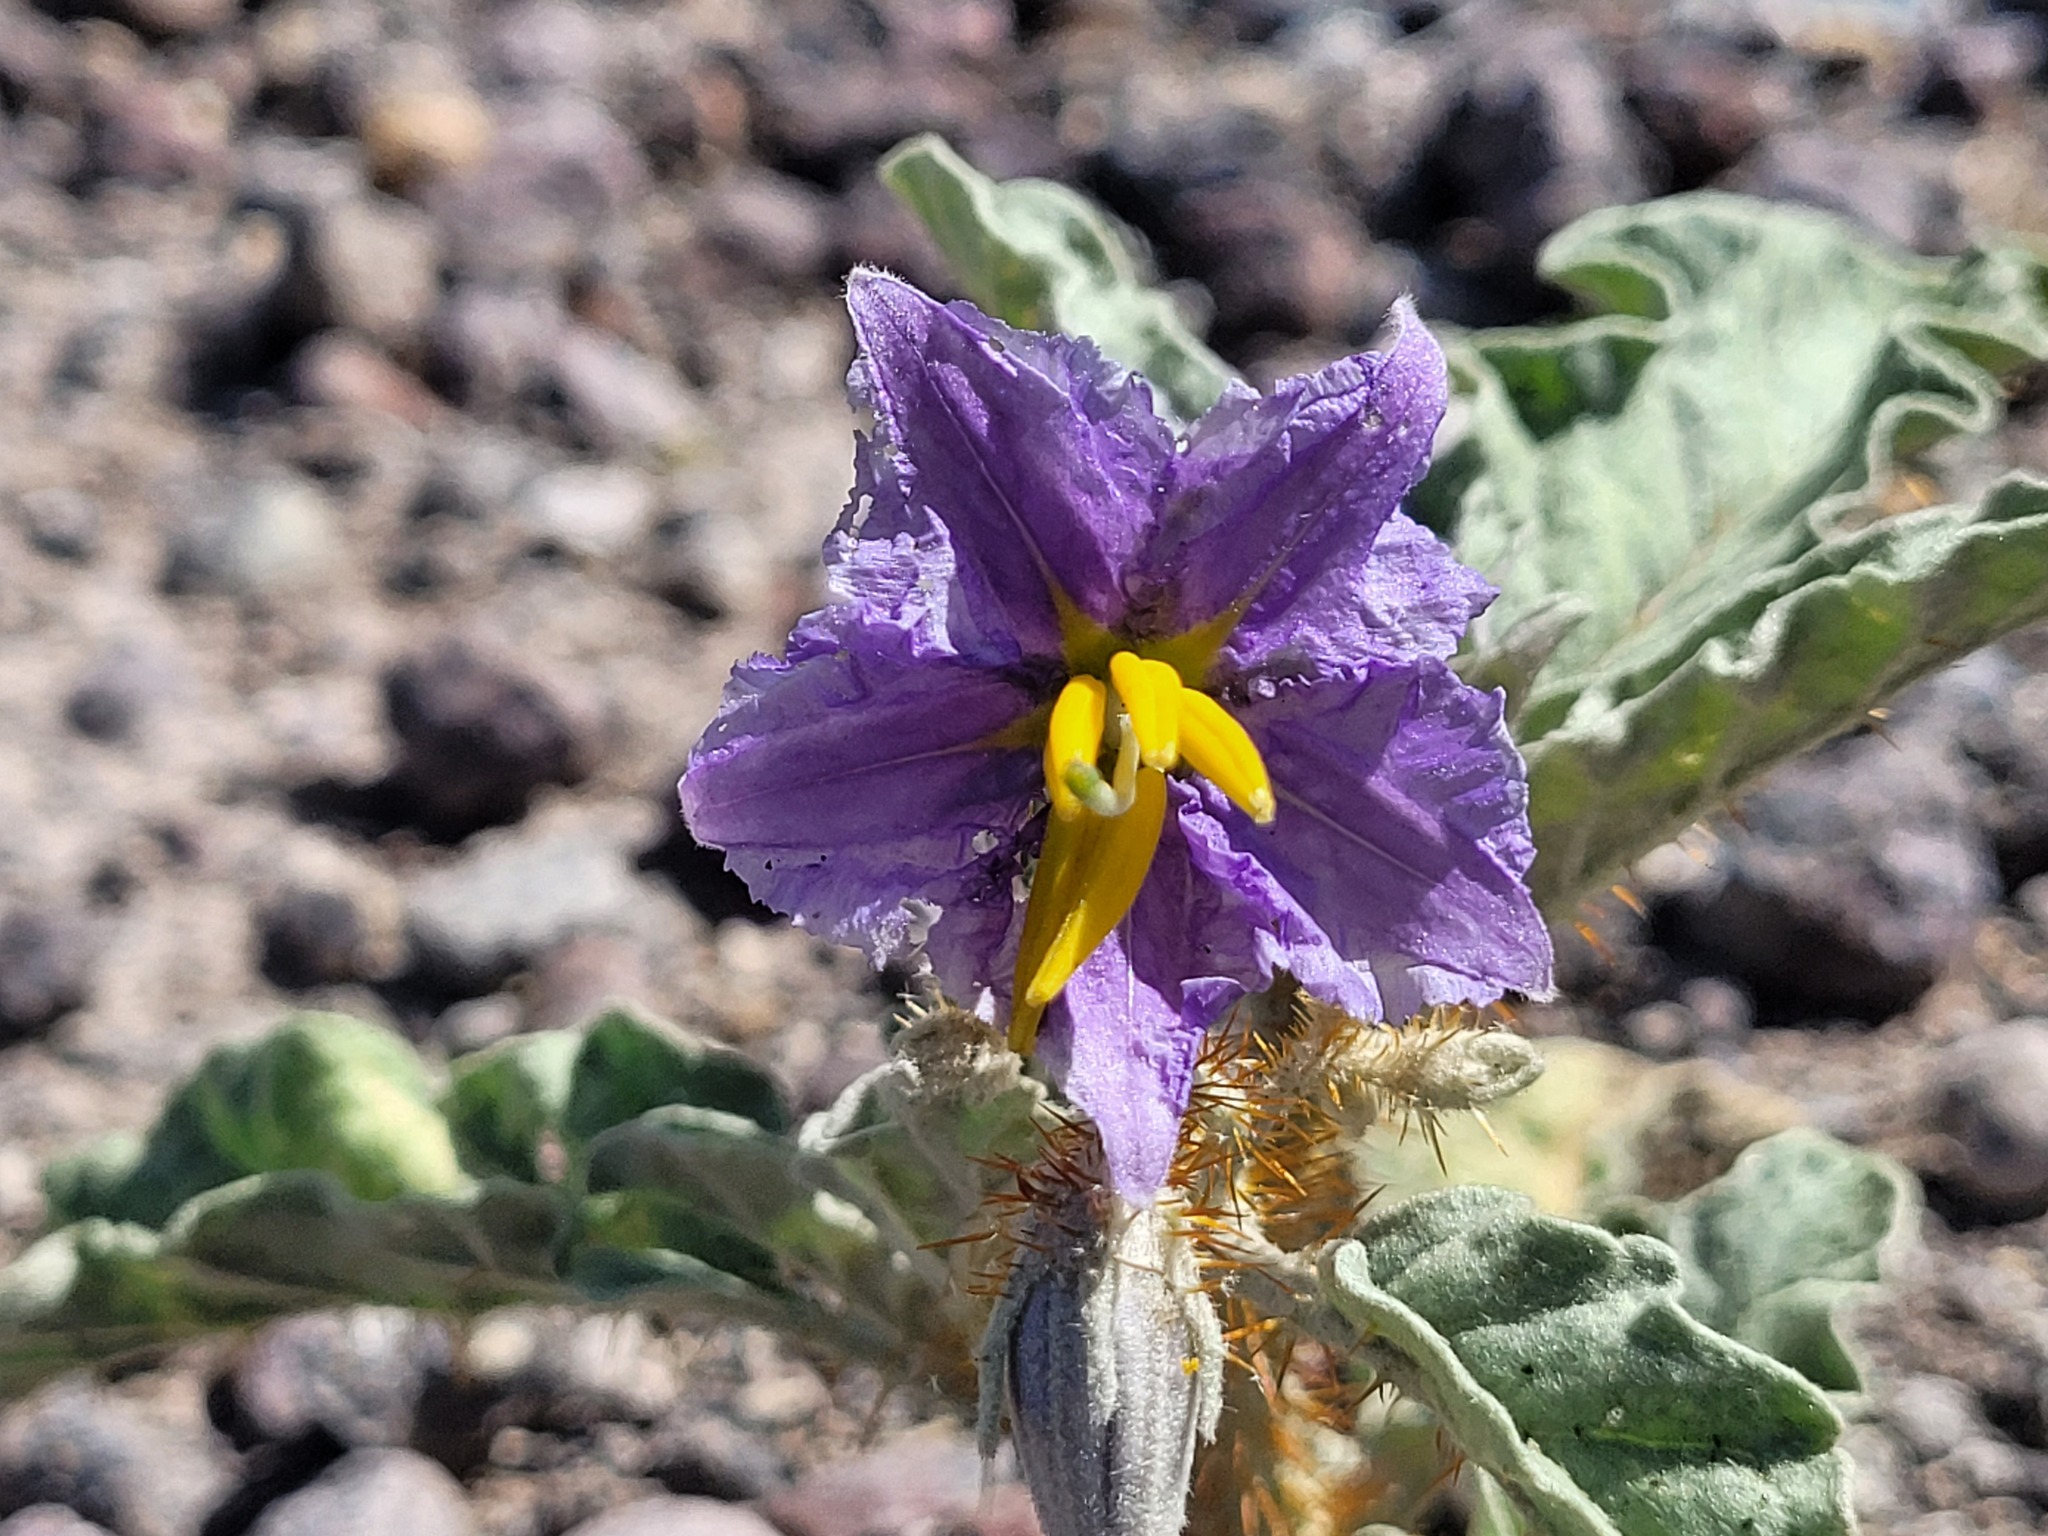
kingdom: Plantae
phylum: Tracheophyta
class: Magnoliopsida
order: Solanales
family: Solanaceae
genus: Solanum
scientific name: Solanum elaeagnifolium
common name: Silverleaf nightshade
